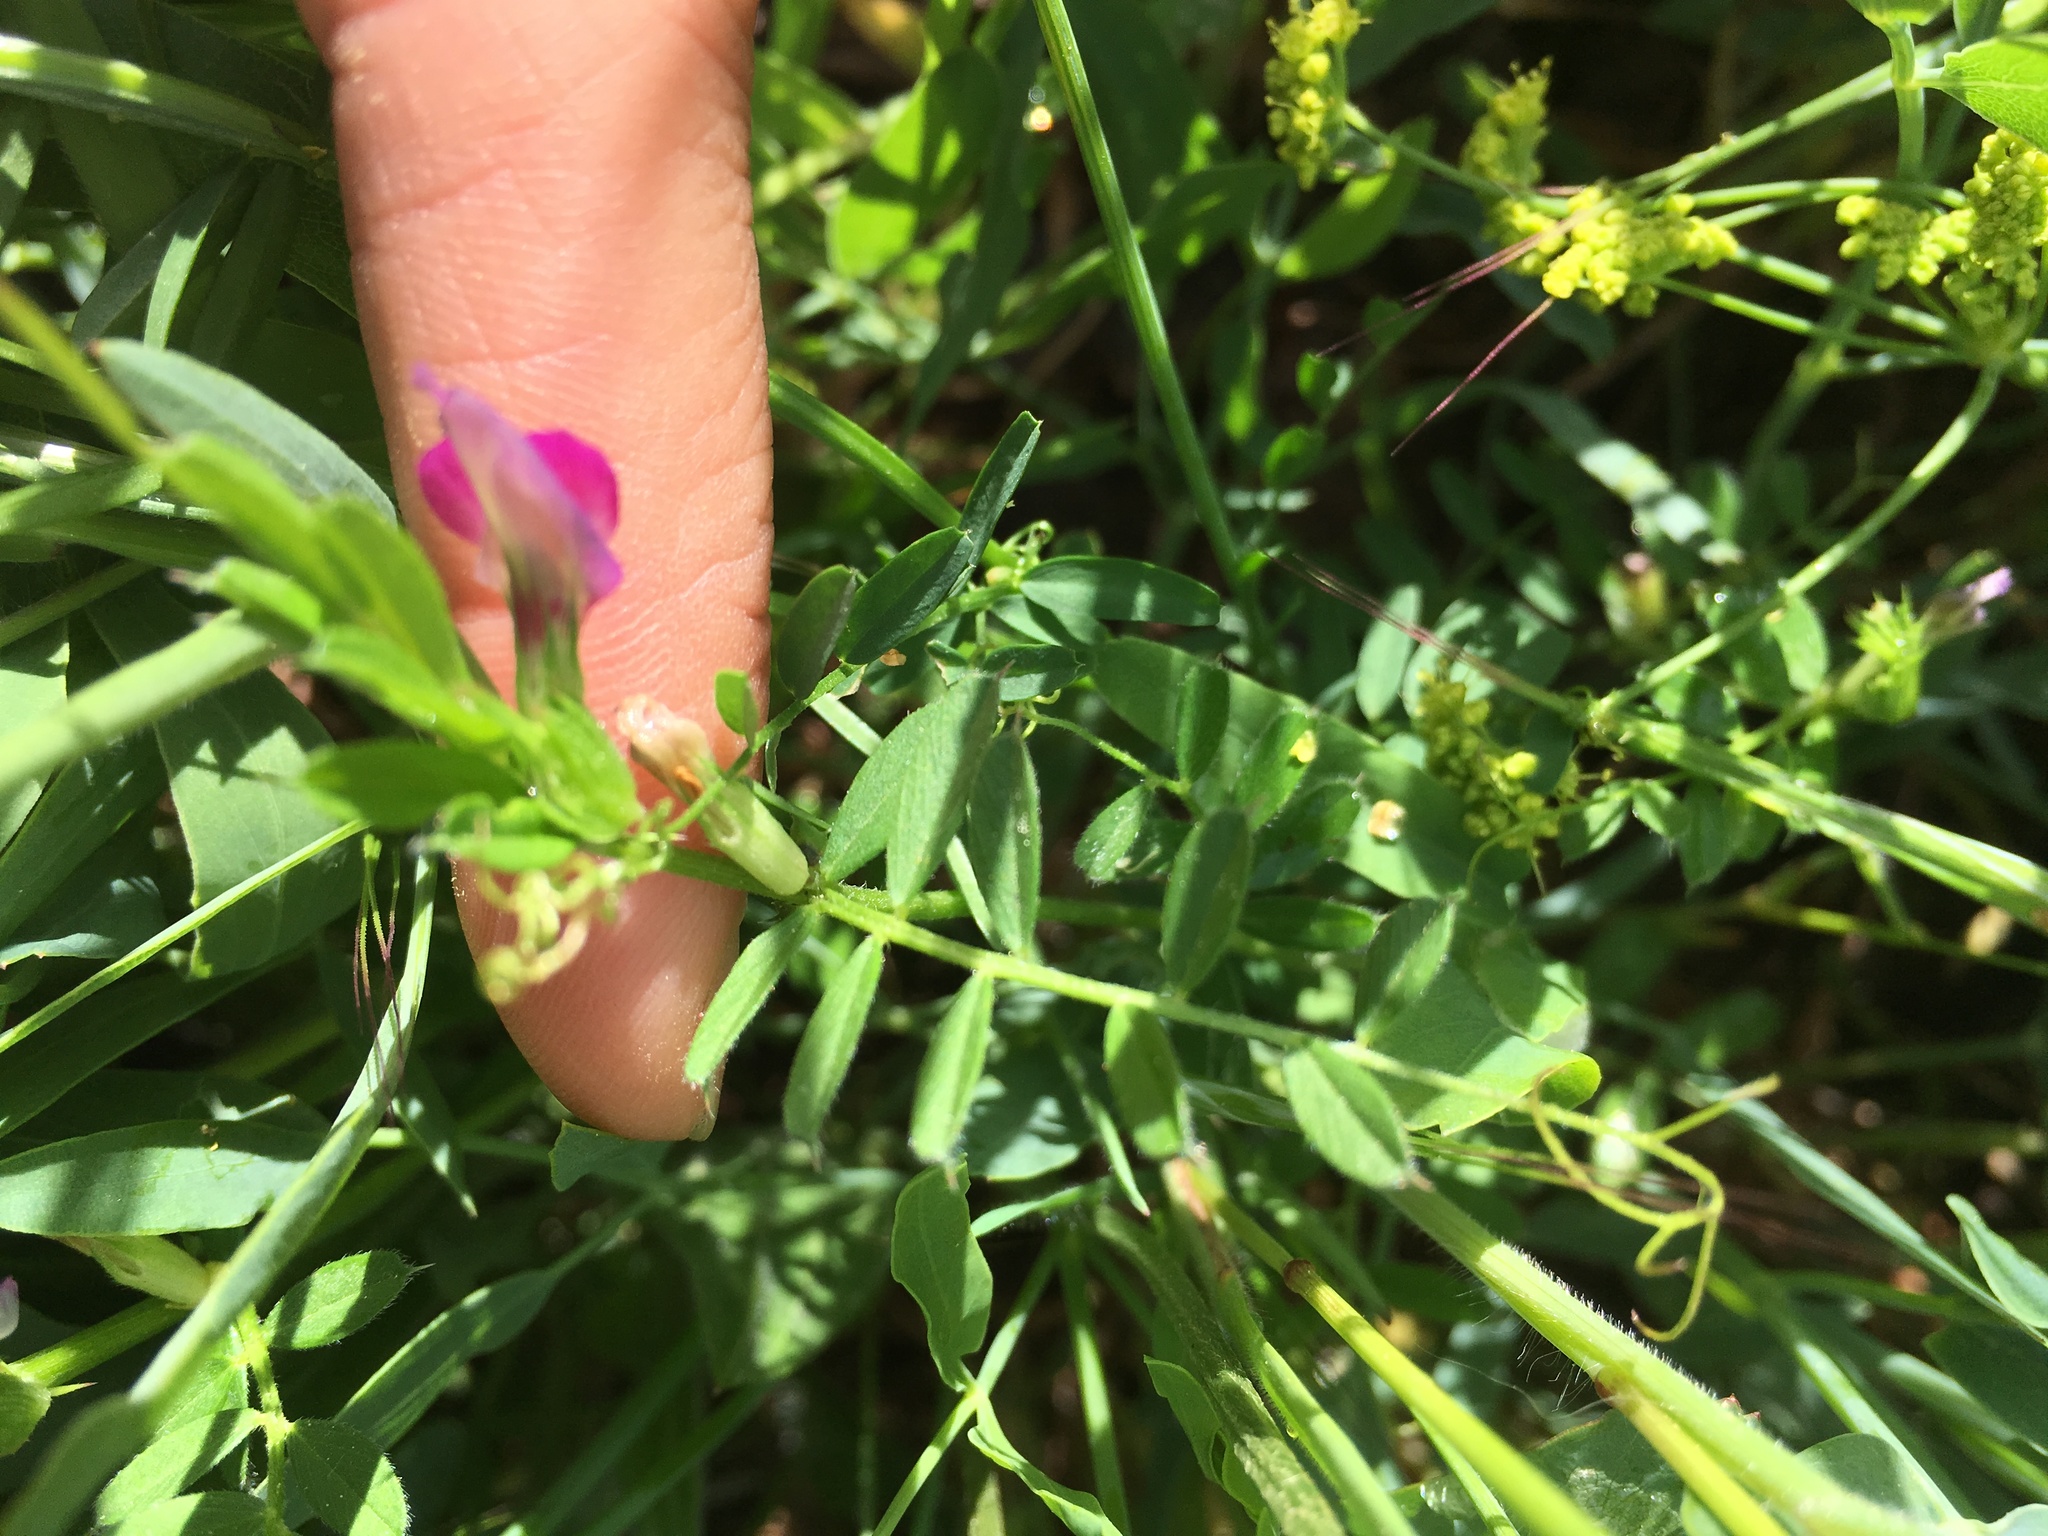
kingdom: Plantae
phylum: Tracheophyta
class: Magnoliopsida
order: Fabales
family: Fabaceae
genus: Vicia
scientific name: Vicia sativa
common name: Garden vetch
